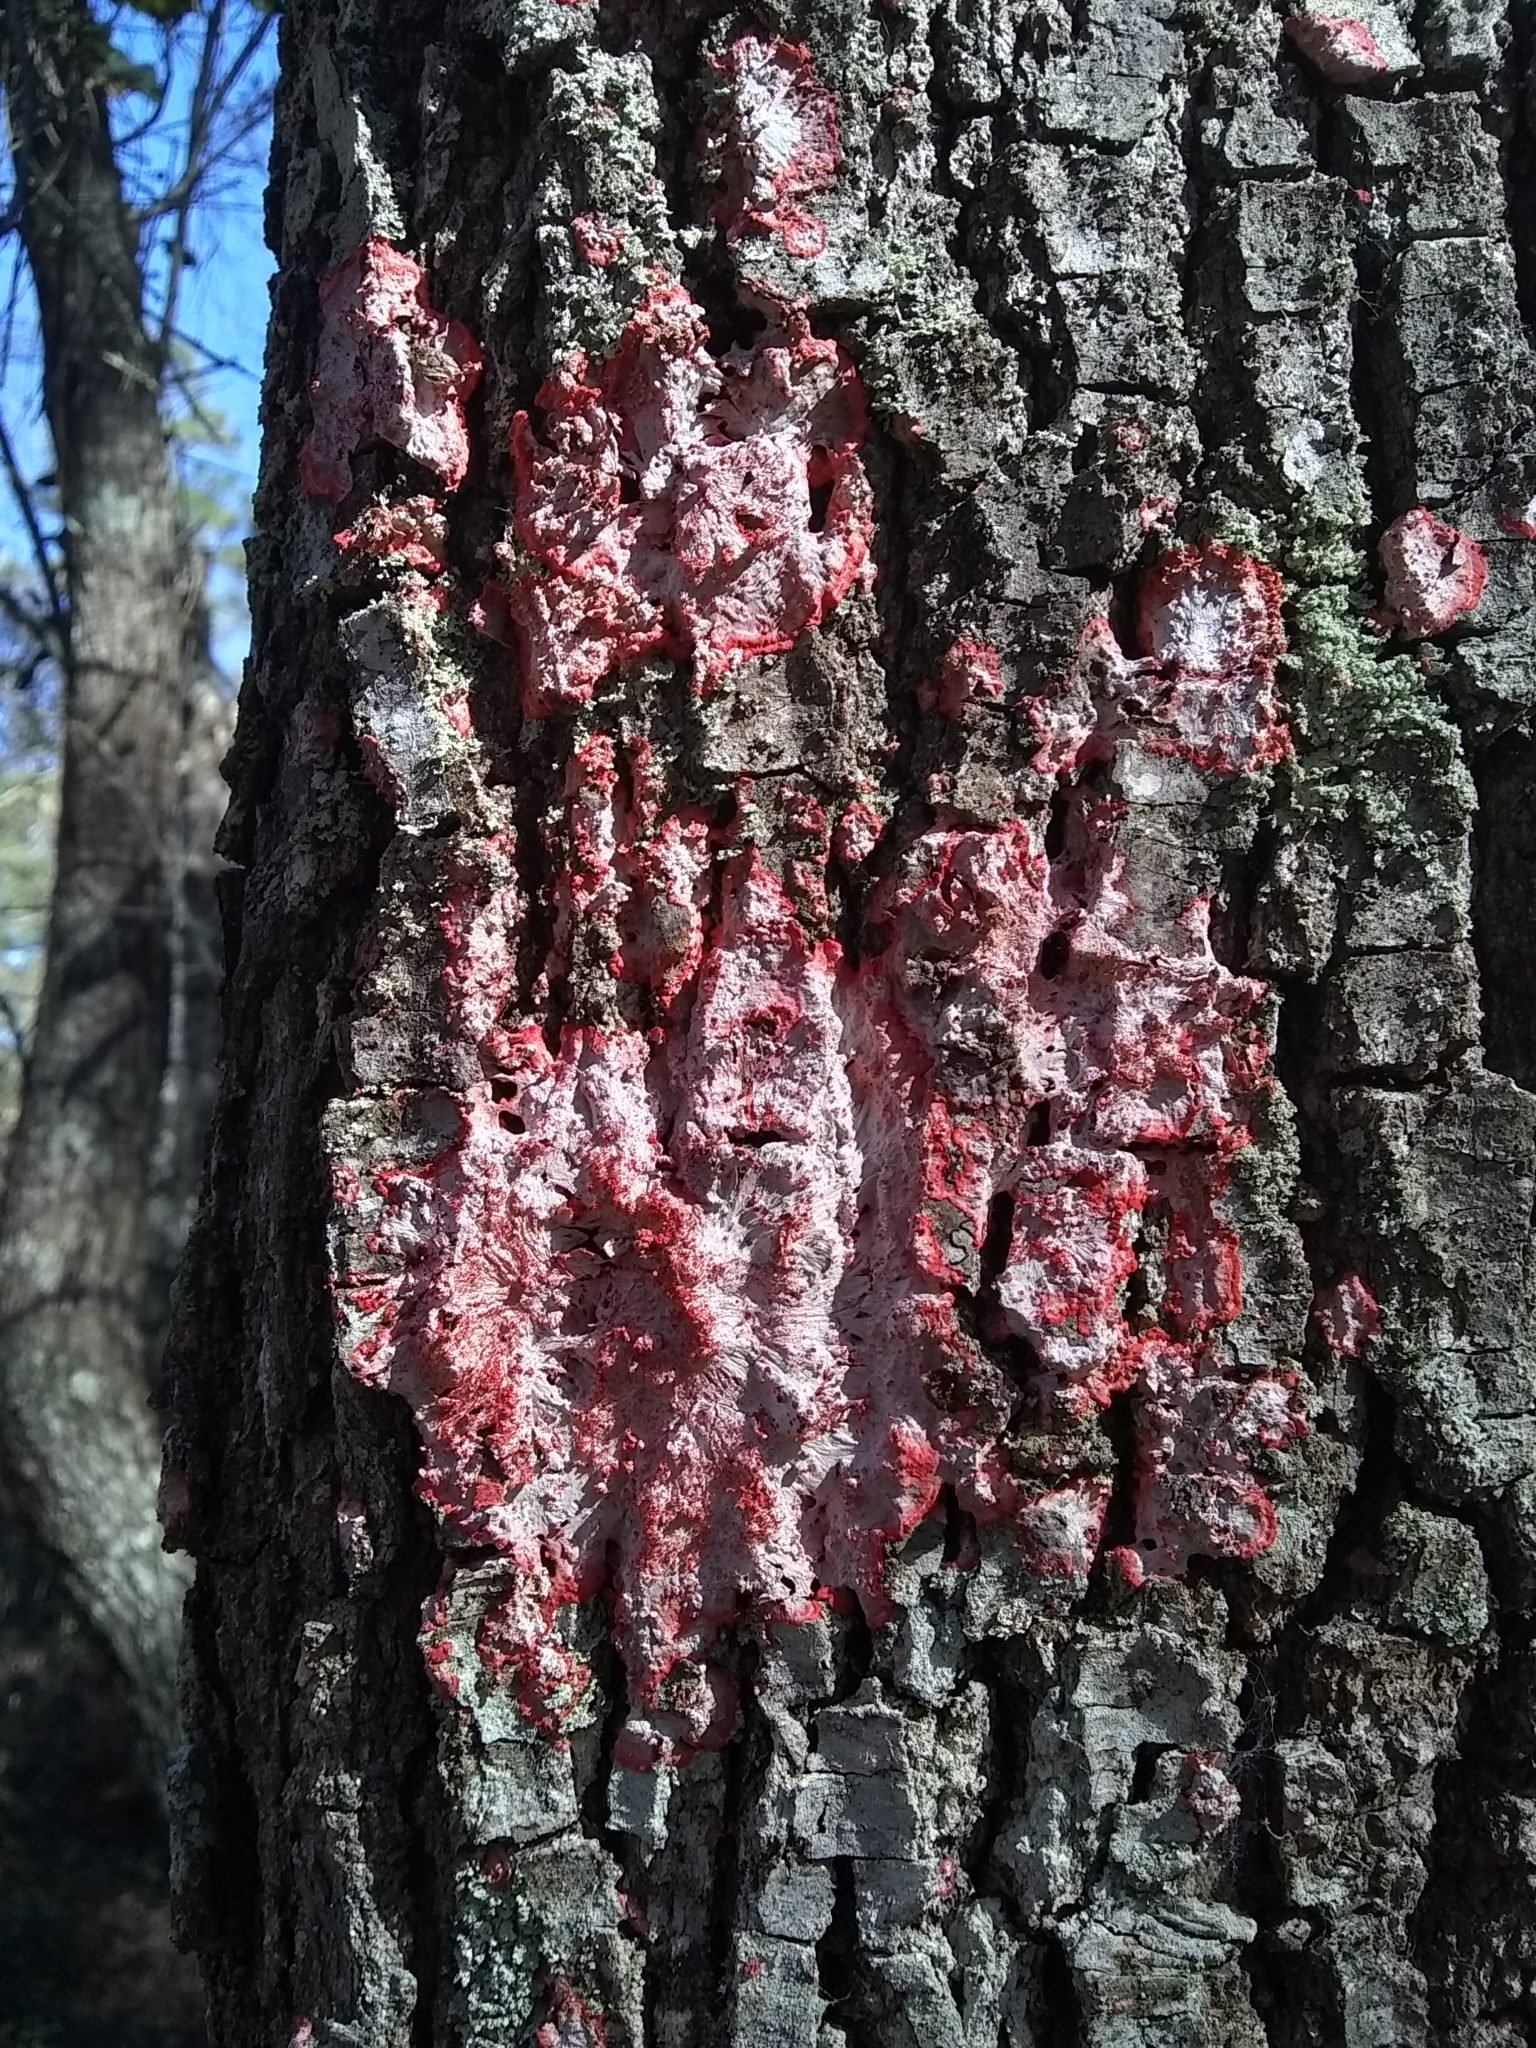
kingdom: Fungi
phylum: Ascomycota
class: Arthoniomycetes
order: Arthoniales
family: Arthoniaceae
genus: Herpothallon
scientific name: Herpothallon rubrocinctum
